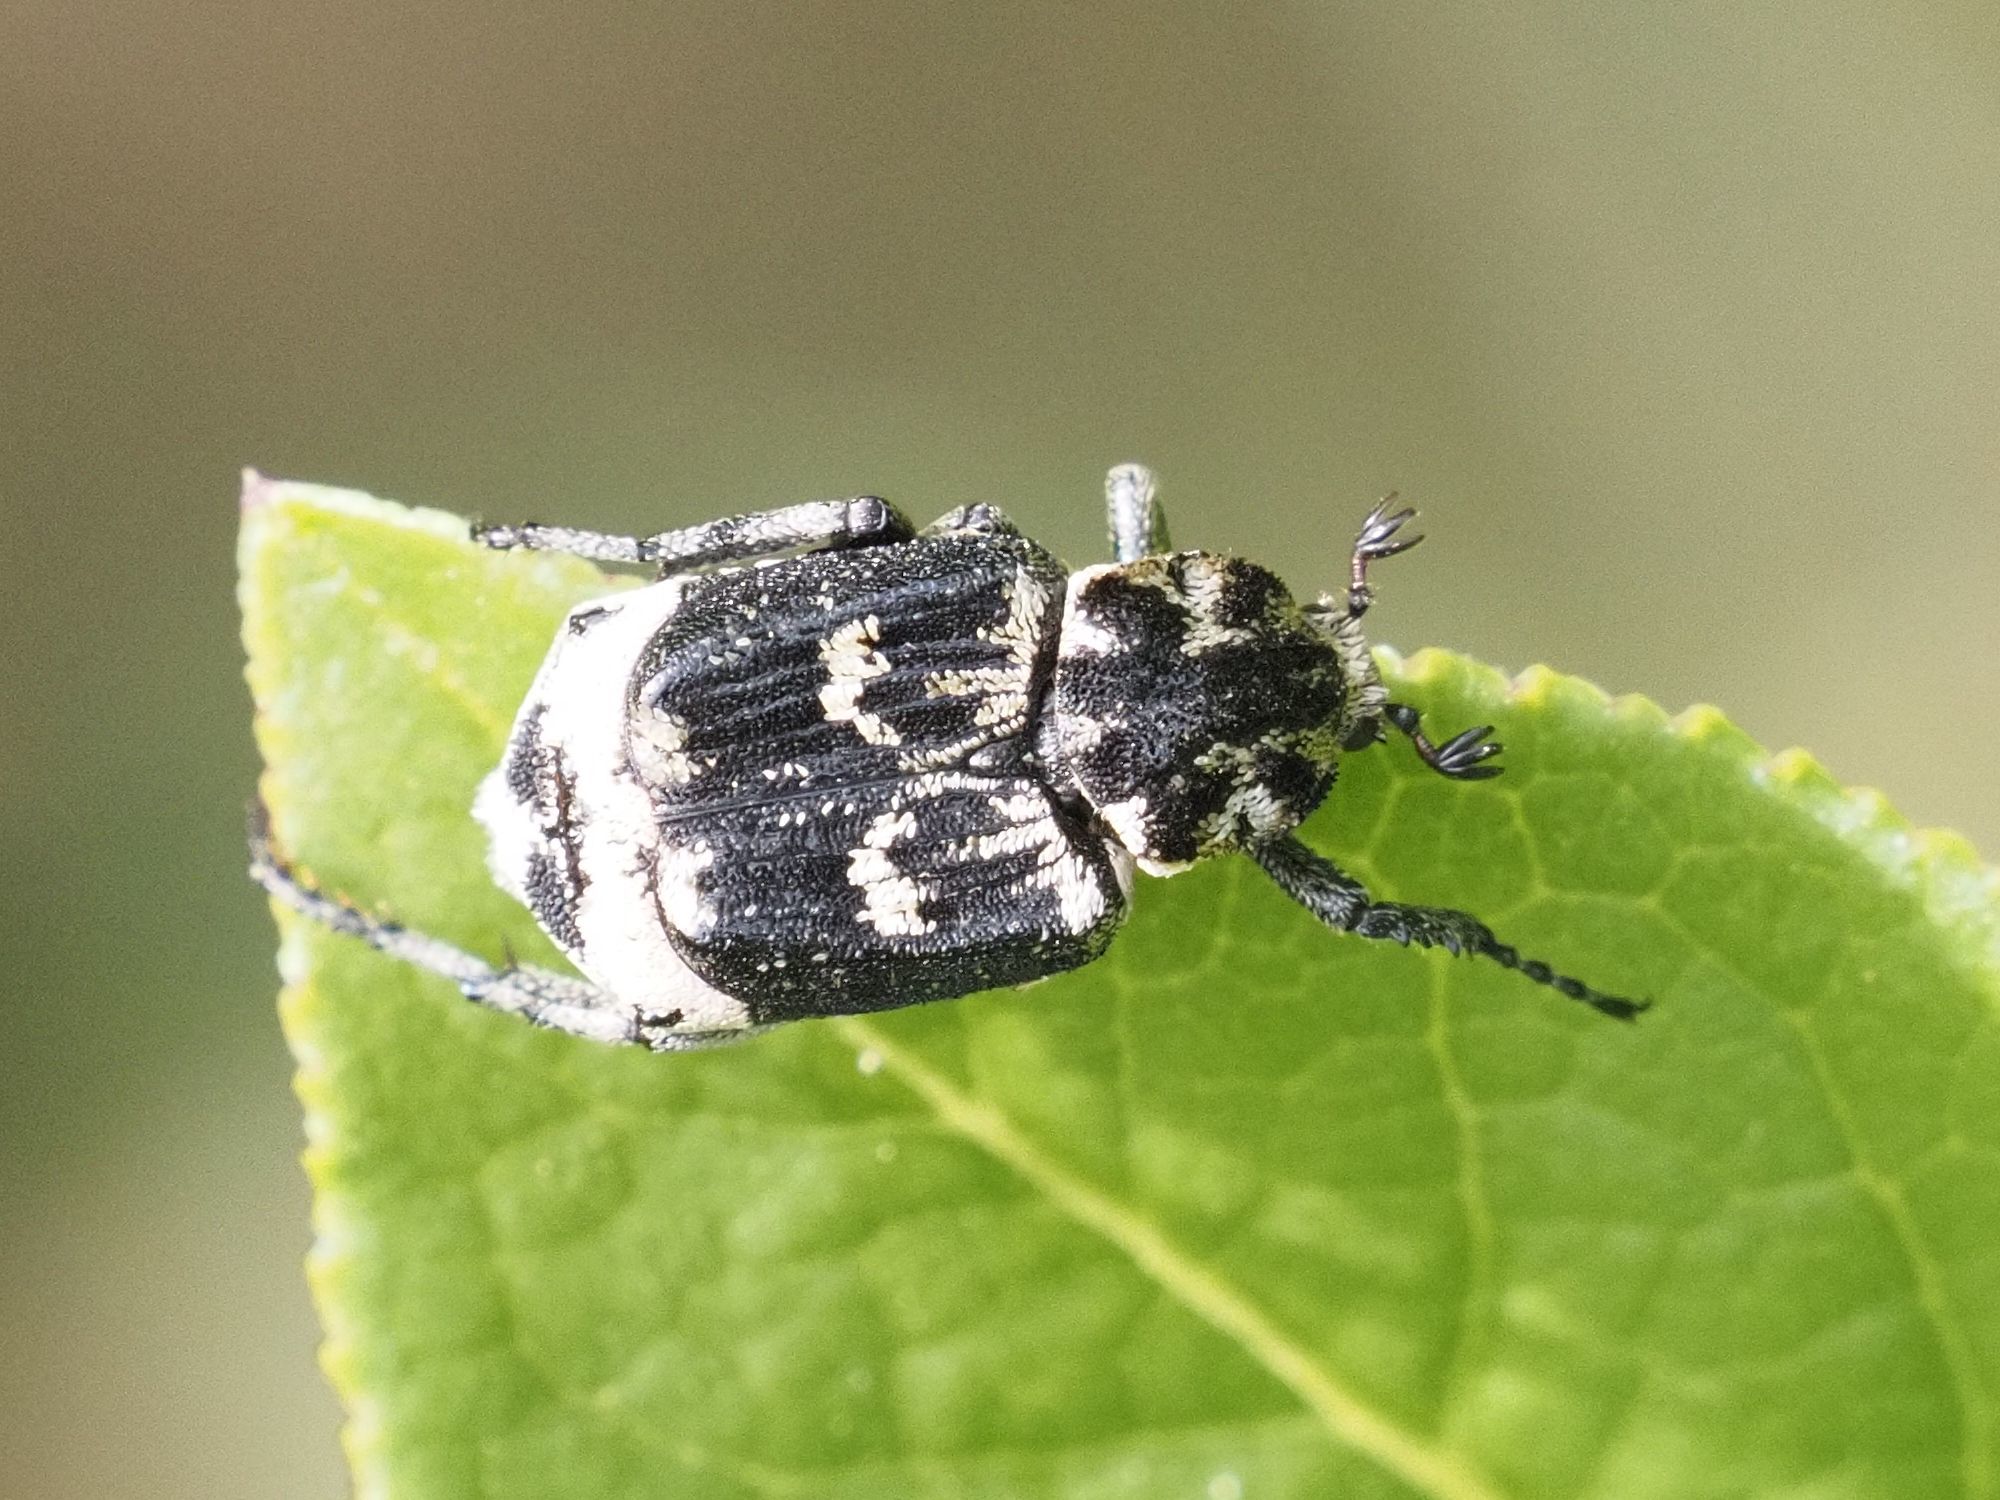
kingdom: Animalia
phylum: Arthropoda
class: Insecta
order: Coleoptera
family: Scarabaeidae
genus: Valgus
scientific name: Valgus hemipterus
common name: Bug flower chafer
